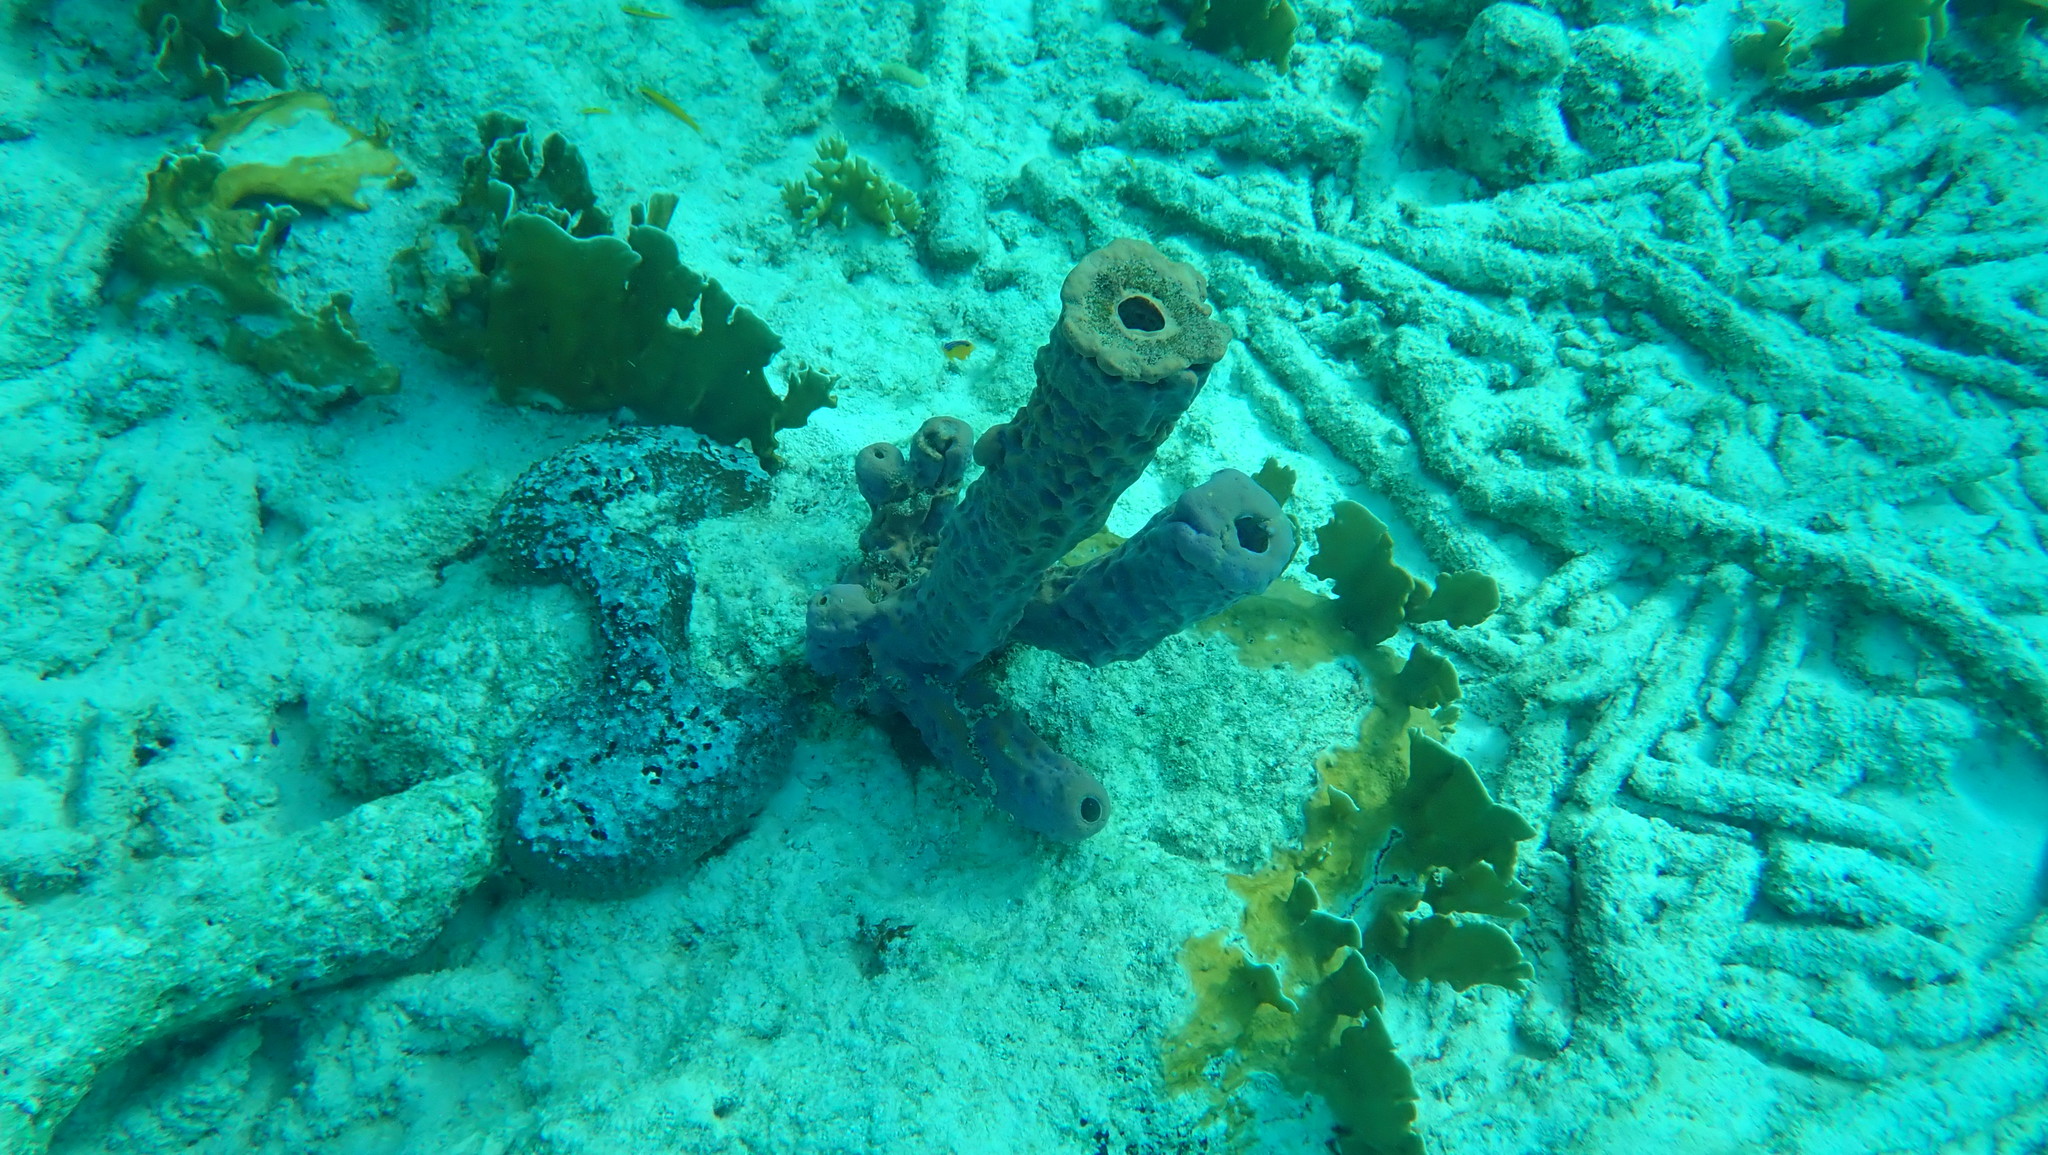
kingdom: Animalia
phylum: Porifera
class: Demospongiae
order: Verongiida
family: Aplysinidae
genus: Aplysina
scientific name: Aplysina archeri
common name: Stove-pipe sponge
